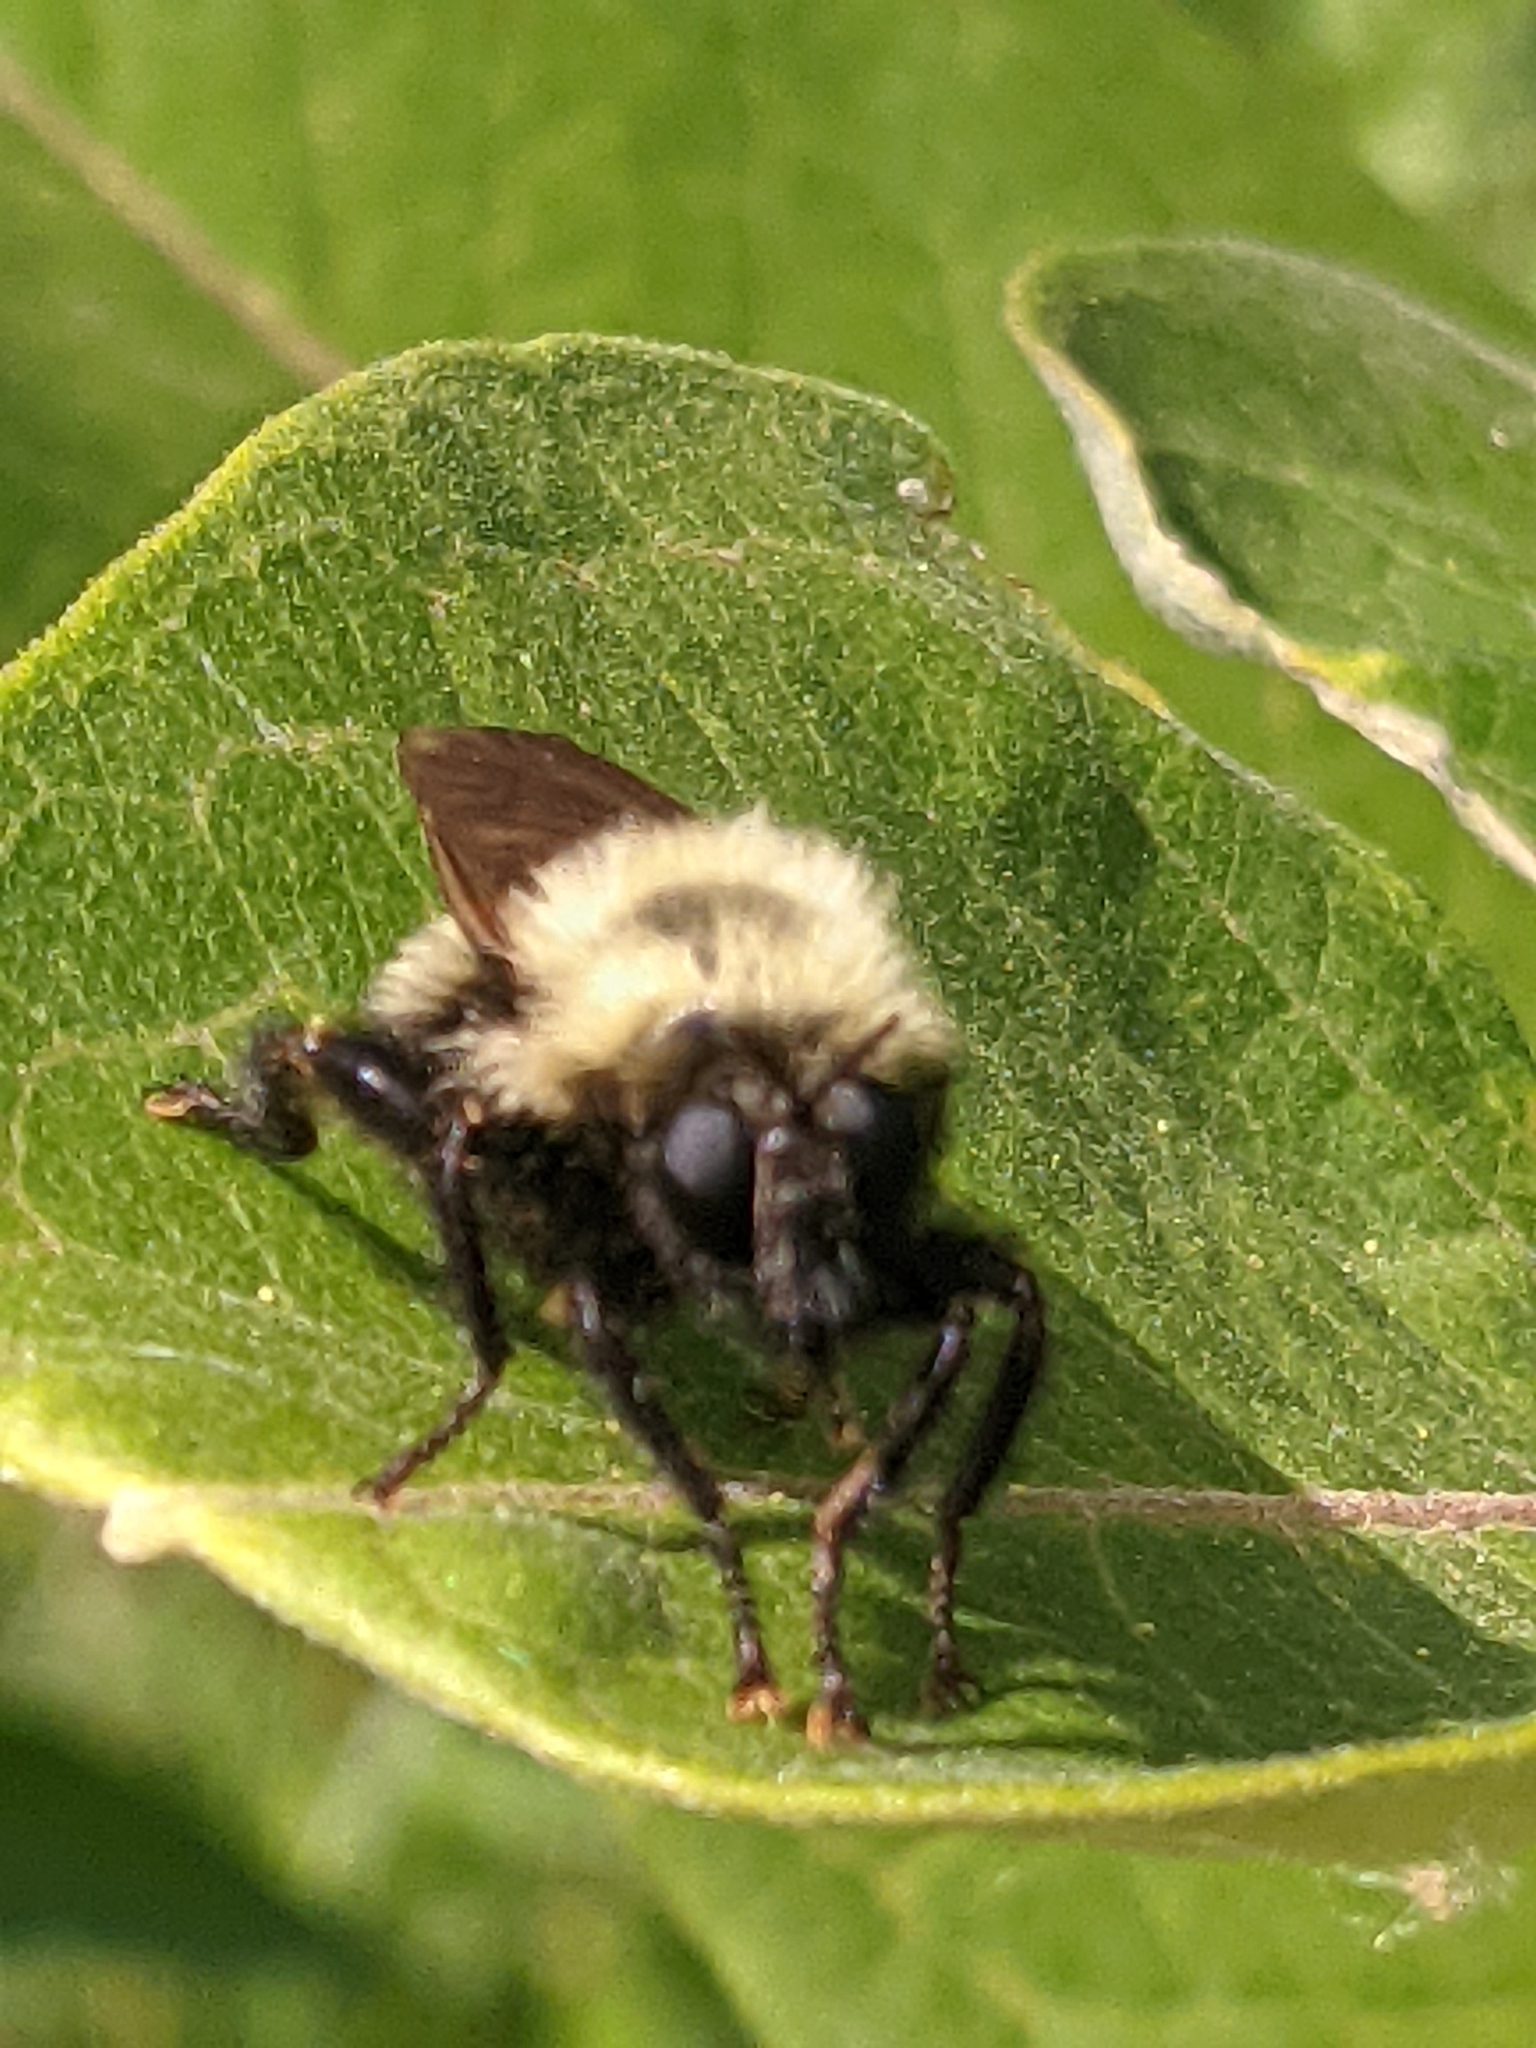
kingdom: Animalia
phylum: Arthropoda
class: Insecta
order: Diptera
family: Asilidae
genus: Laphria
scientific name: Laphria thoracica
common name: Bumble bee mimic robber fly
